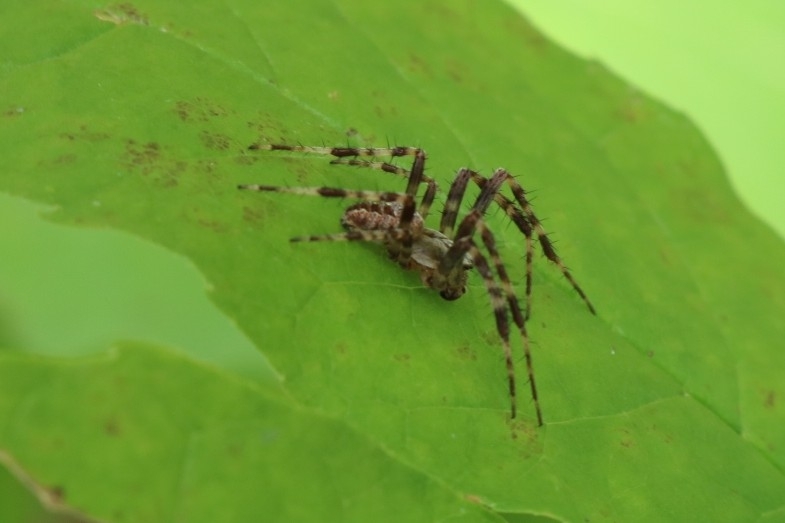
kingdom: Animalia
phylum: Arthropoda
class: Arachnida
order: Araneae
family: Araneidae
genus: Araneus
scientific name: Araneus diadematus
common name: Cross orbweaver
